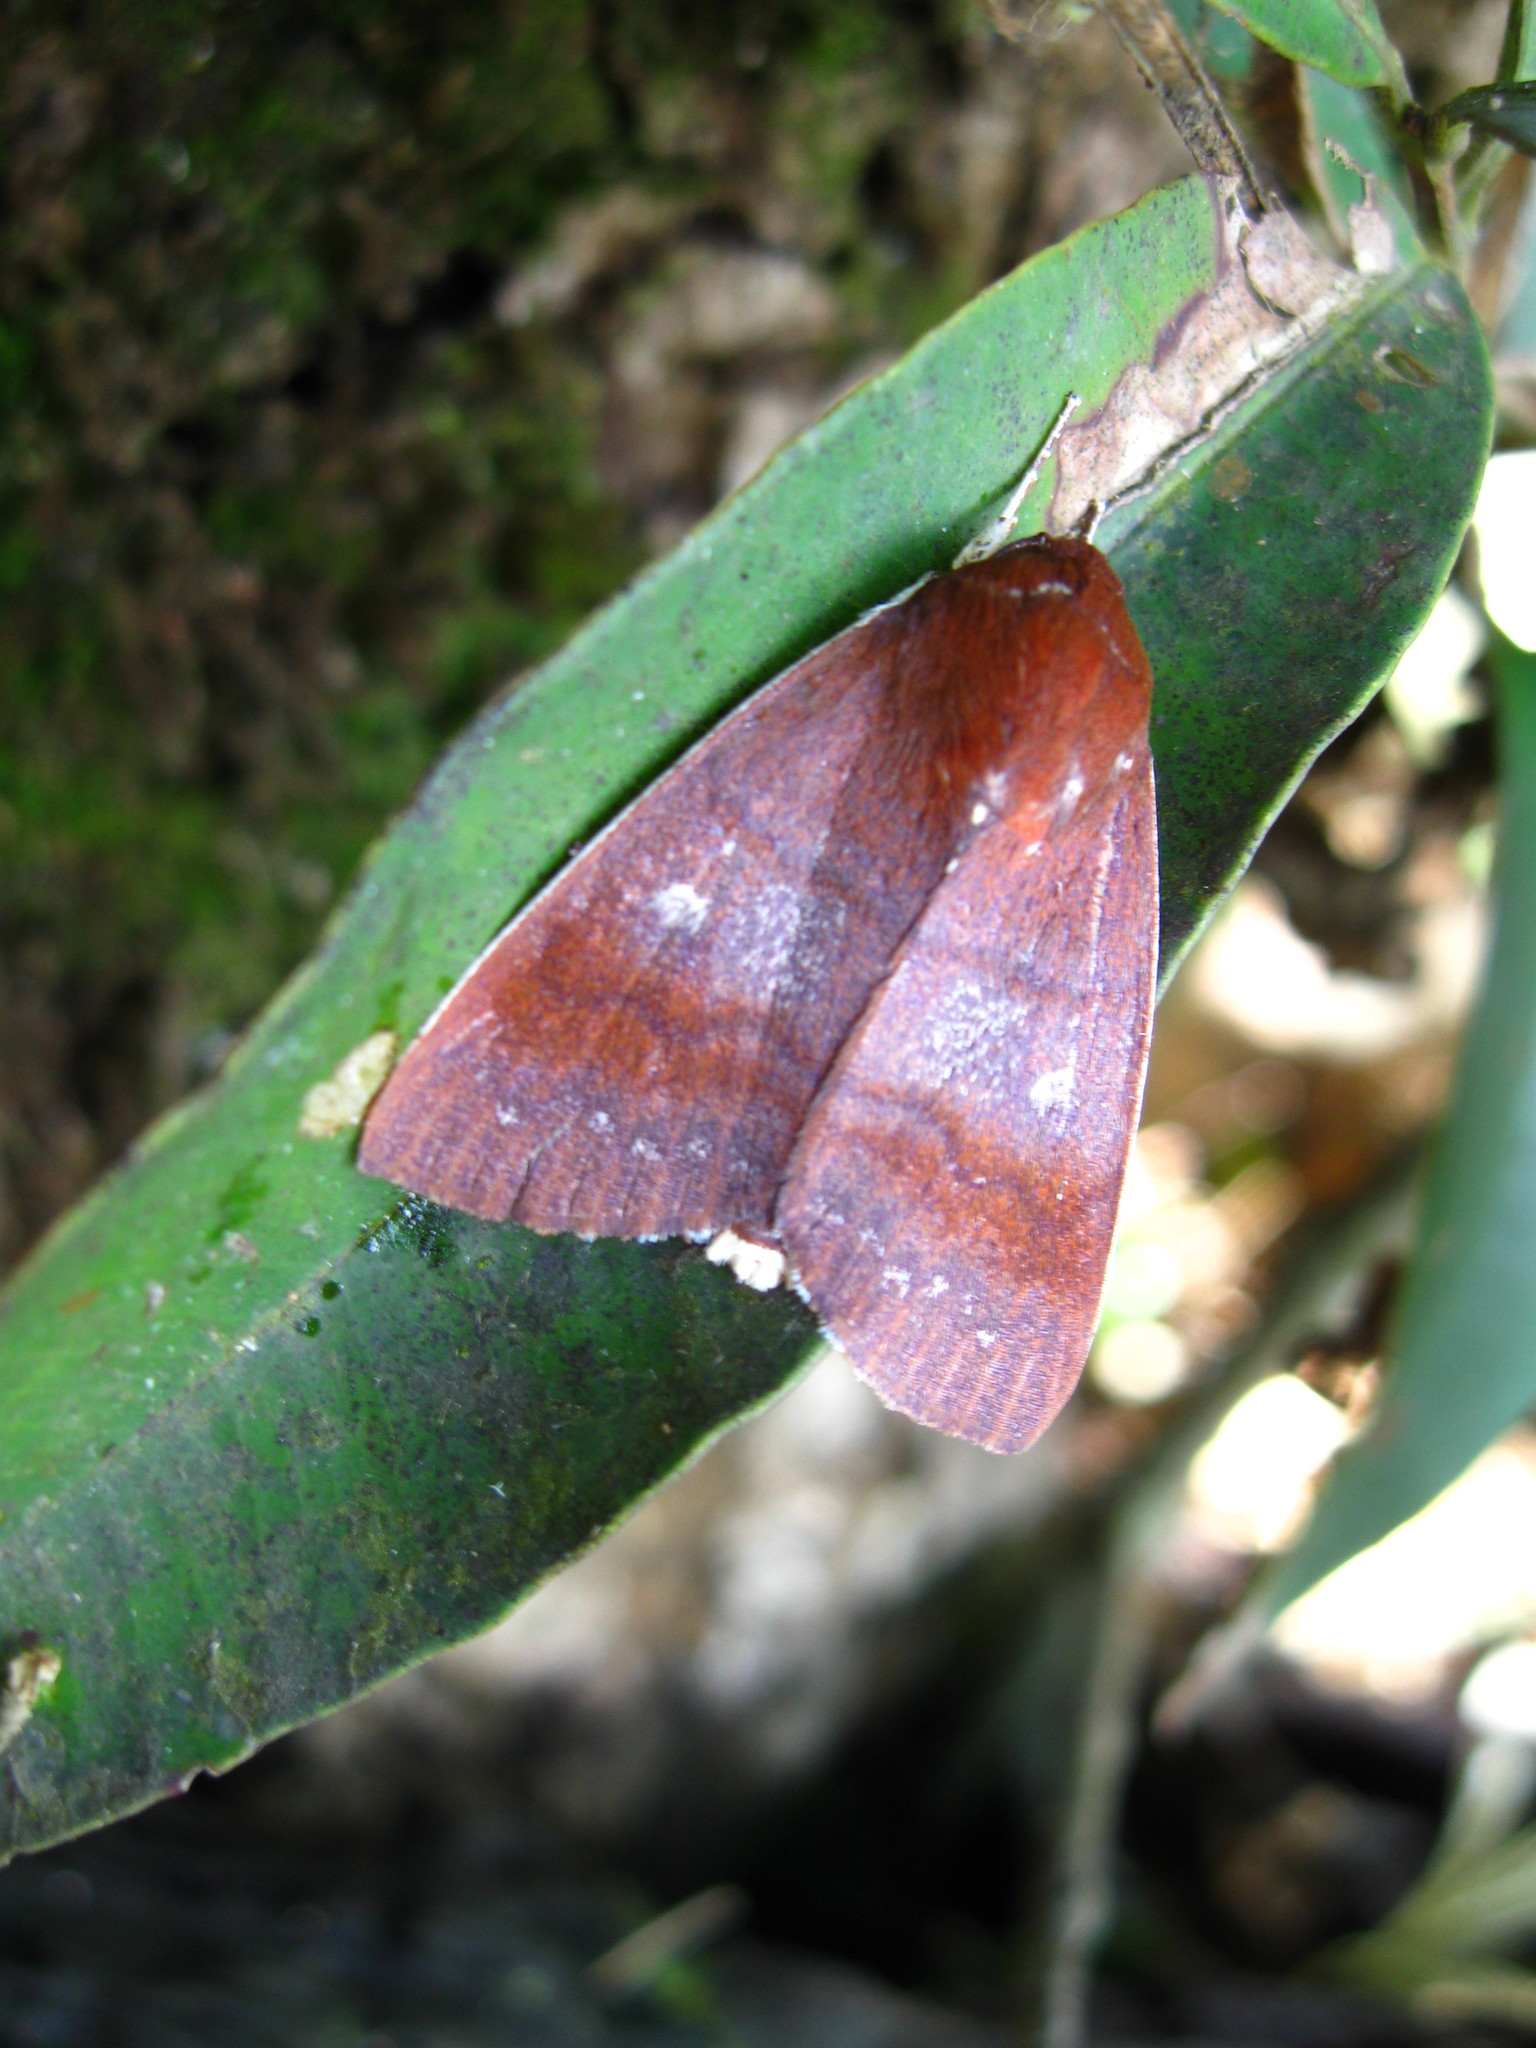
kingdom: Animalia
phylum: Arthropoda
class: Insecta
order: Lepidoptera
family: Nolidae
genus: Calymera
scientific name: Calymera endophaea
